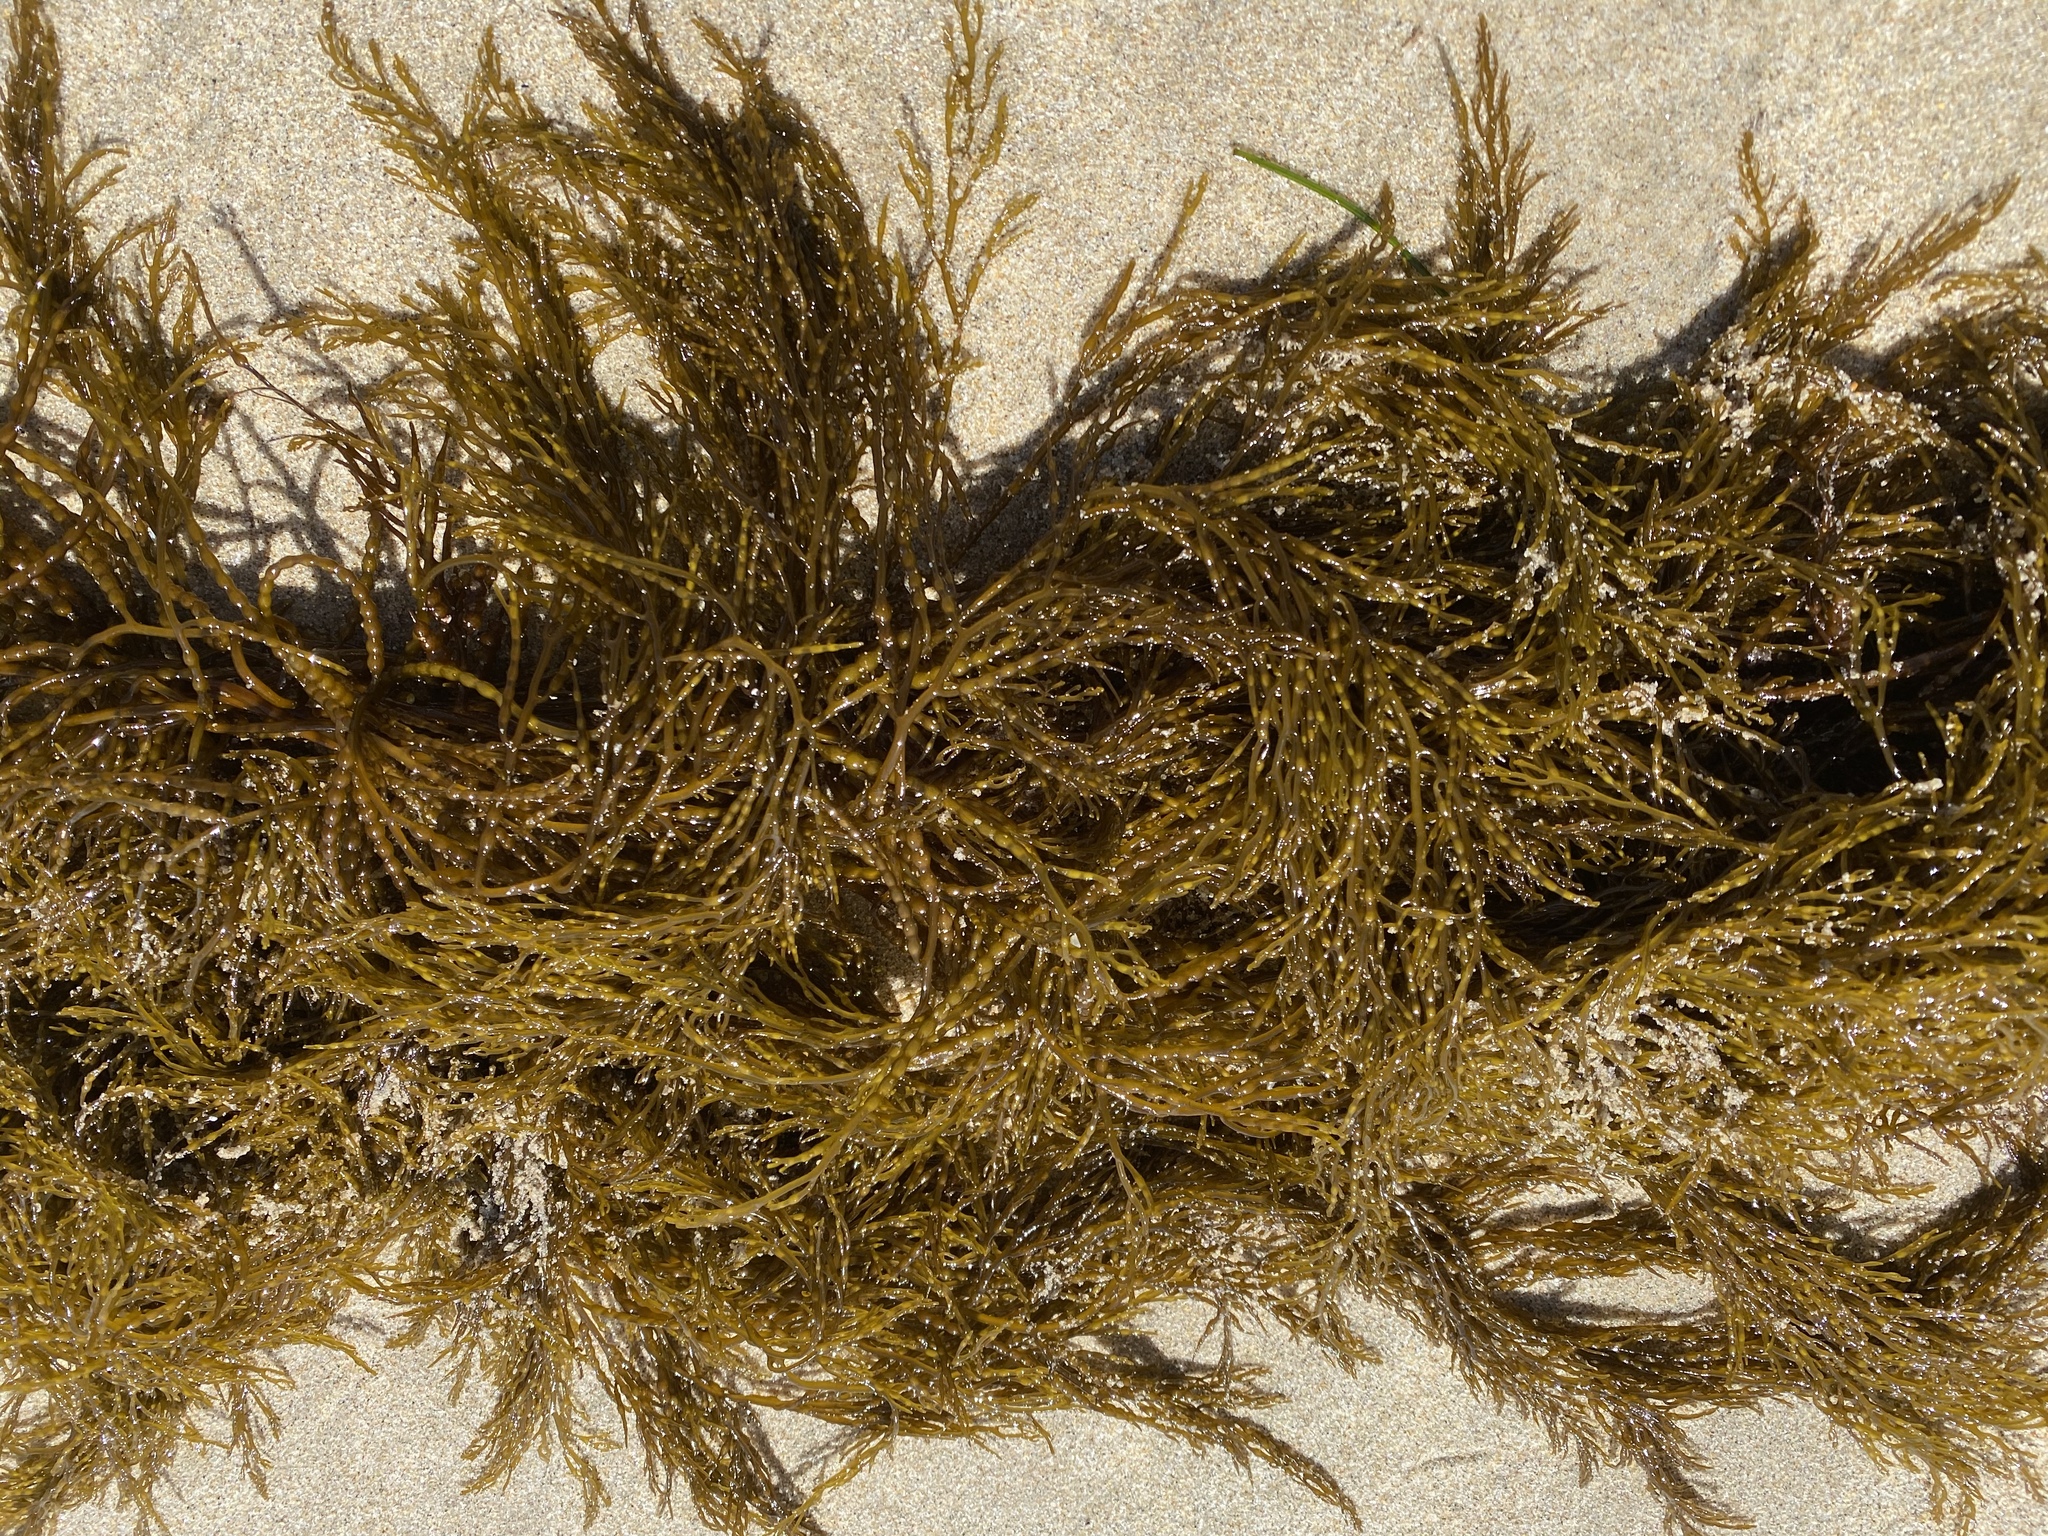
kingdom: Chromista
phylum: Ochrophyta
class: Phaeophyceae
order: Fucales
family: Sargassaceae
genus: Stephanocystis
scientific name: Stephanocystis
